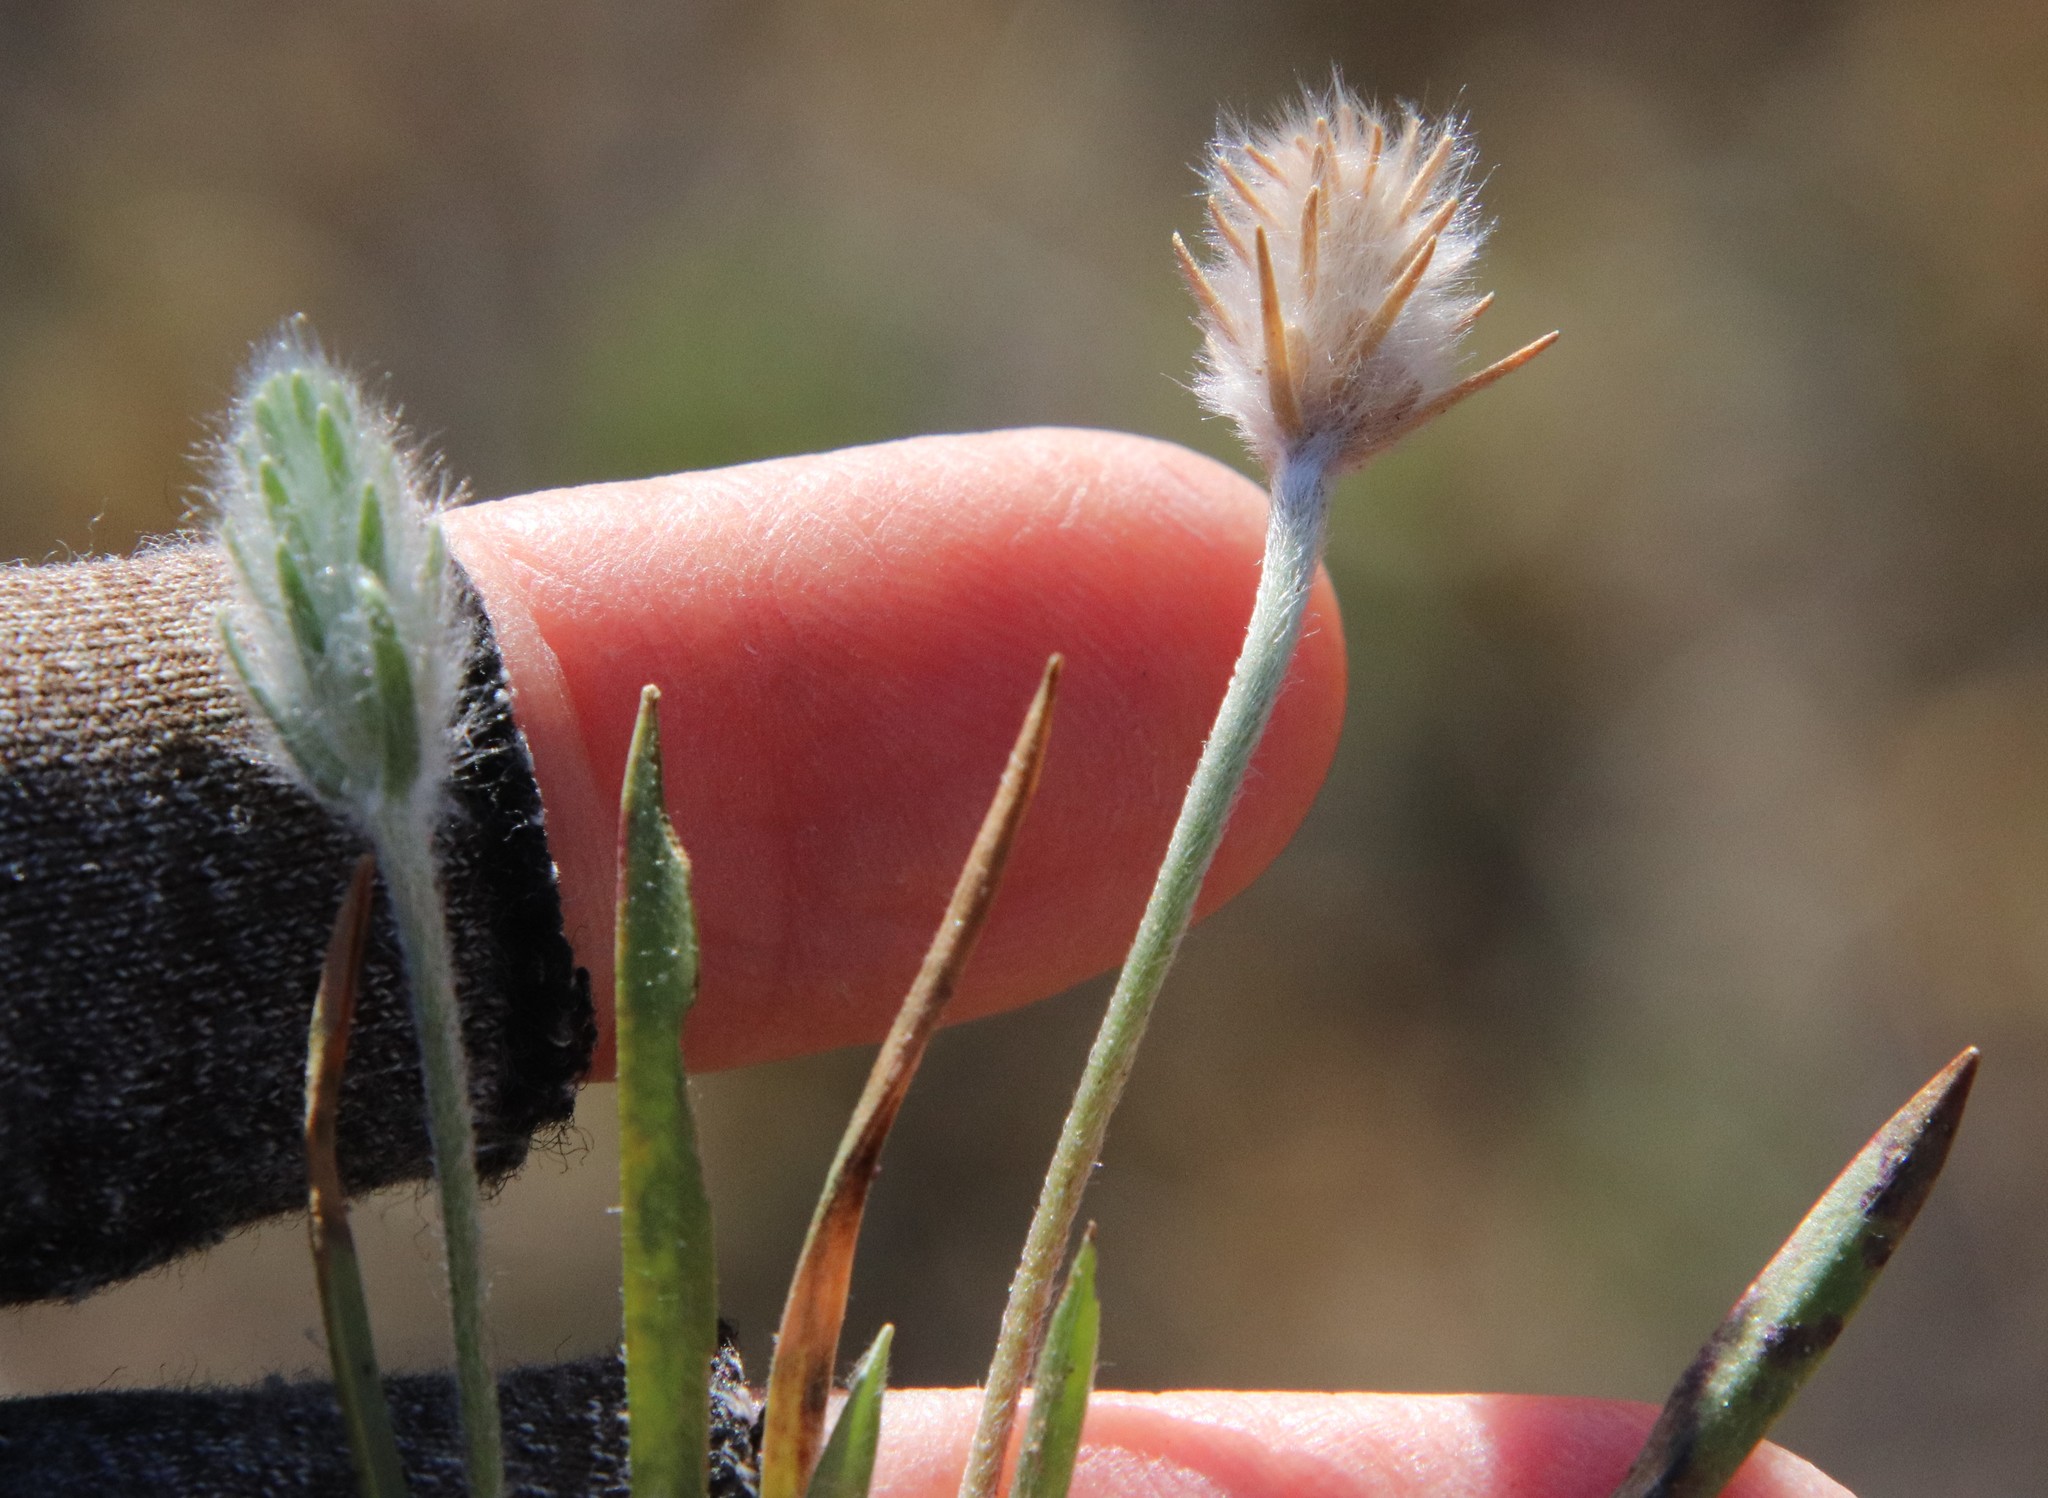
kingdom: Plantae
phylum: Tracheophyta
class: Magnoliopsida
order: Lamiales
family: Plantaginaceae
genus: Plantago
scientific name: Plantago patagonica
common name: Patagonia indian-wheat
